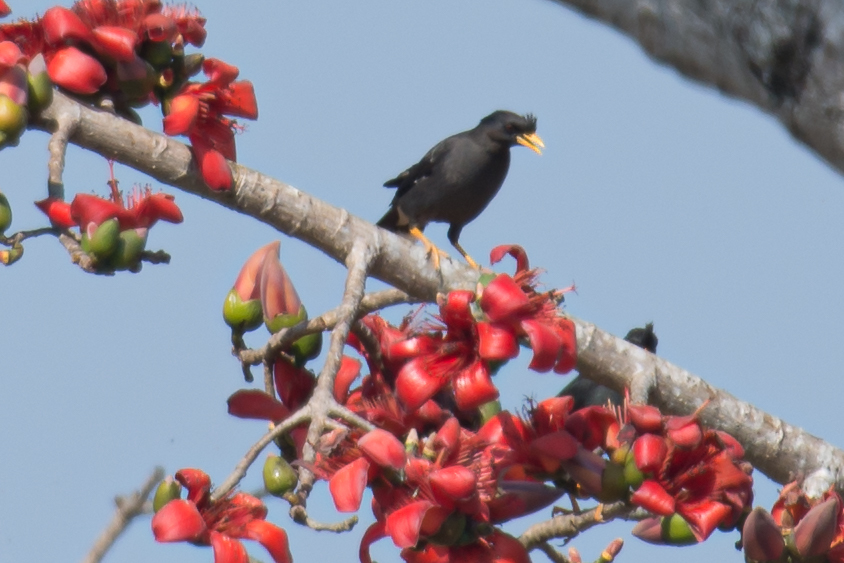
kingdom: Animalia
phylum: Chordata
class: Aves
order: Passeriformes
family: Sturnidae
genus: Acridotheres
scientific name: Acridotheres grandis
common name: Great myna
